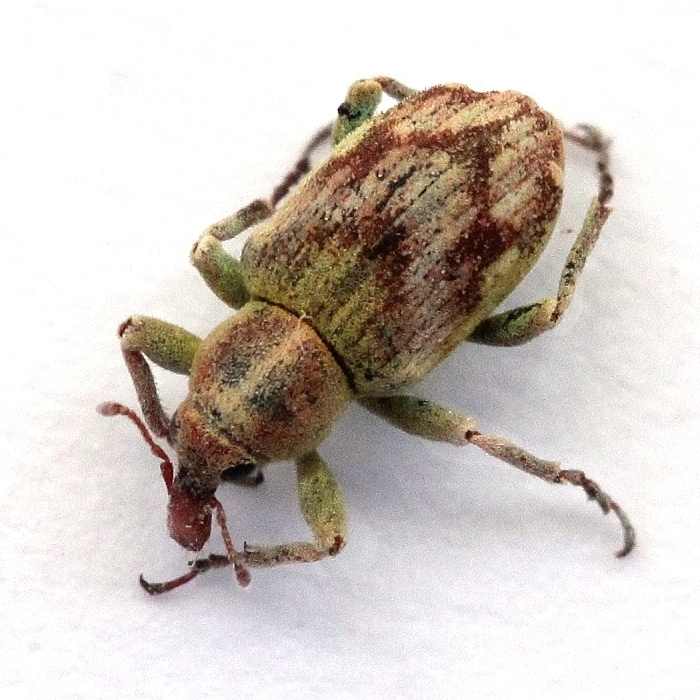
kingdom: Animalia
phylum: Arthropoda
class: Insecta
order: Coleoptera
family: Curculionidae
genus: Coniatus
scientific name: Coniatus splendidulus
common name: Splendid tamarisk weevil
